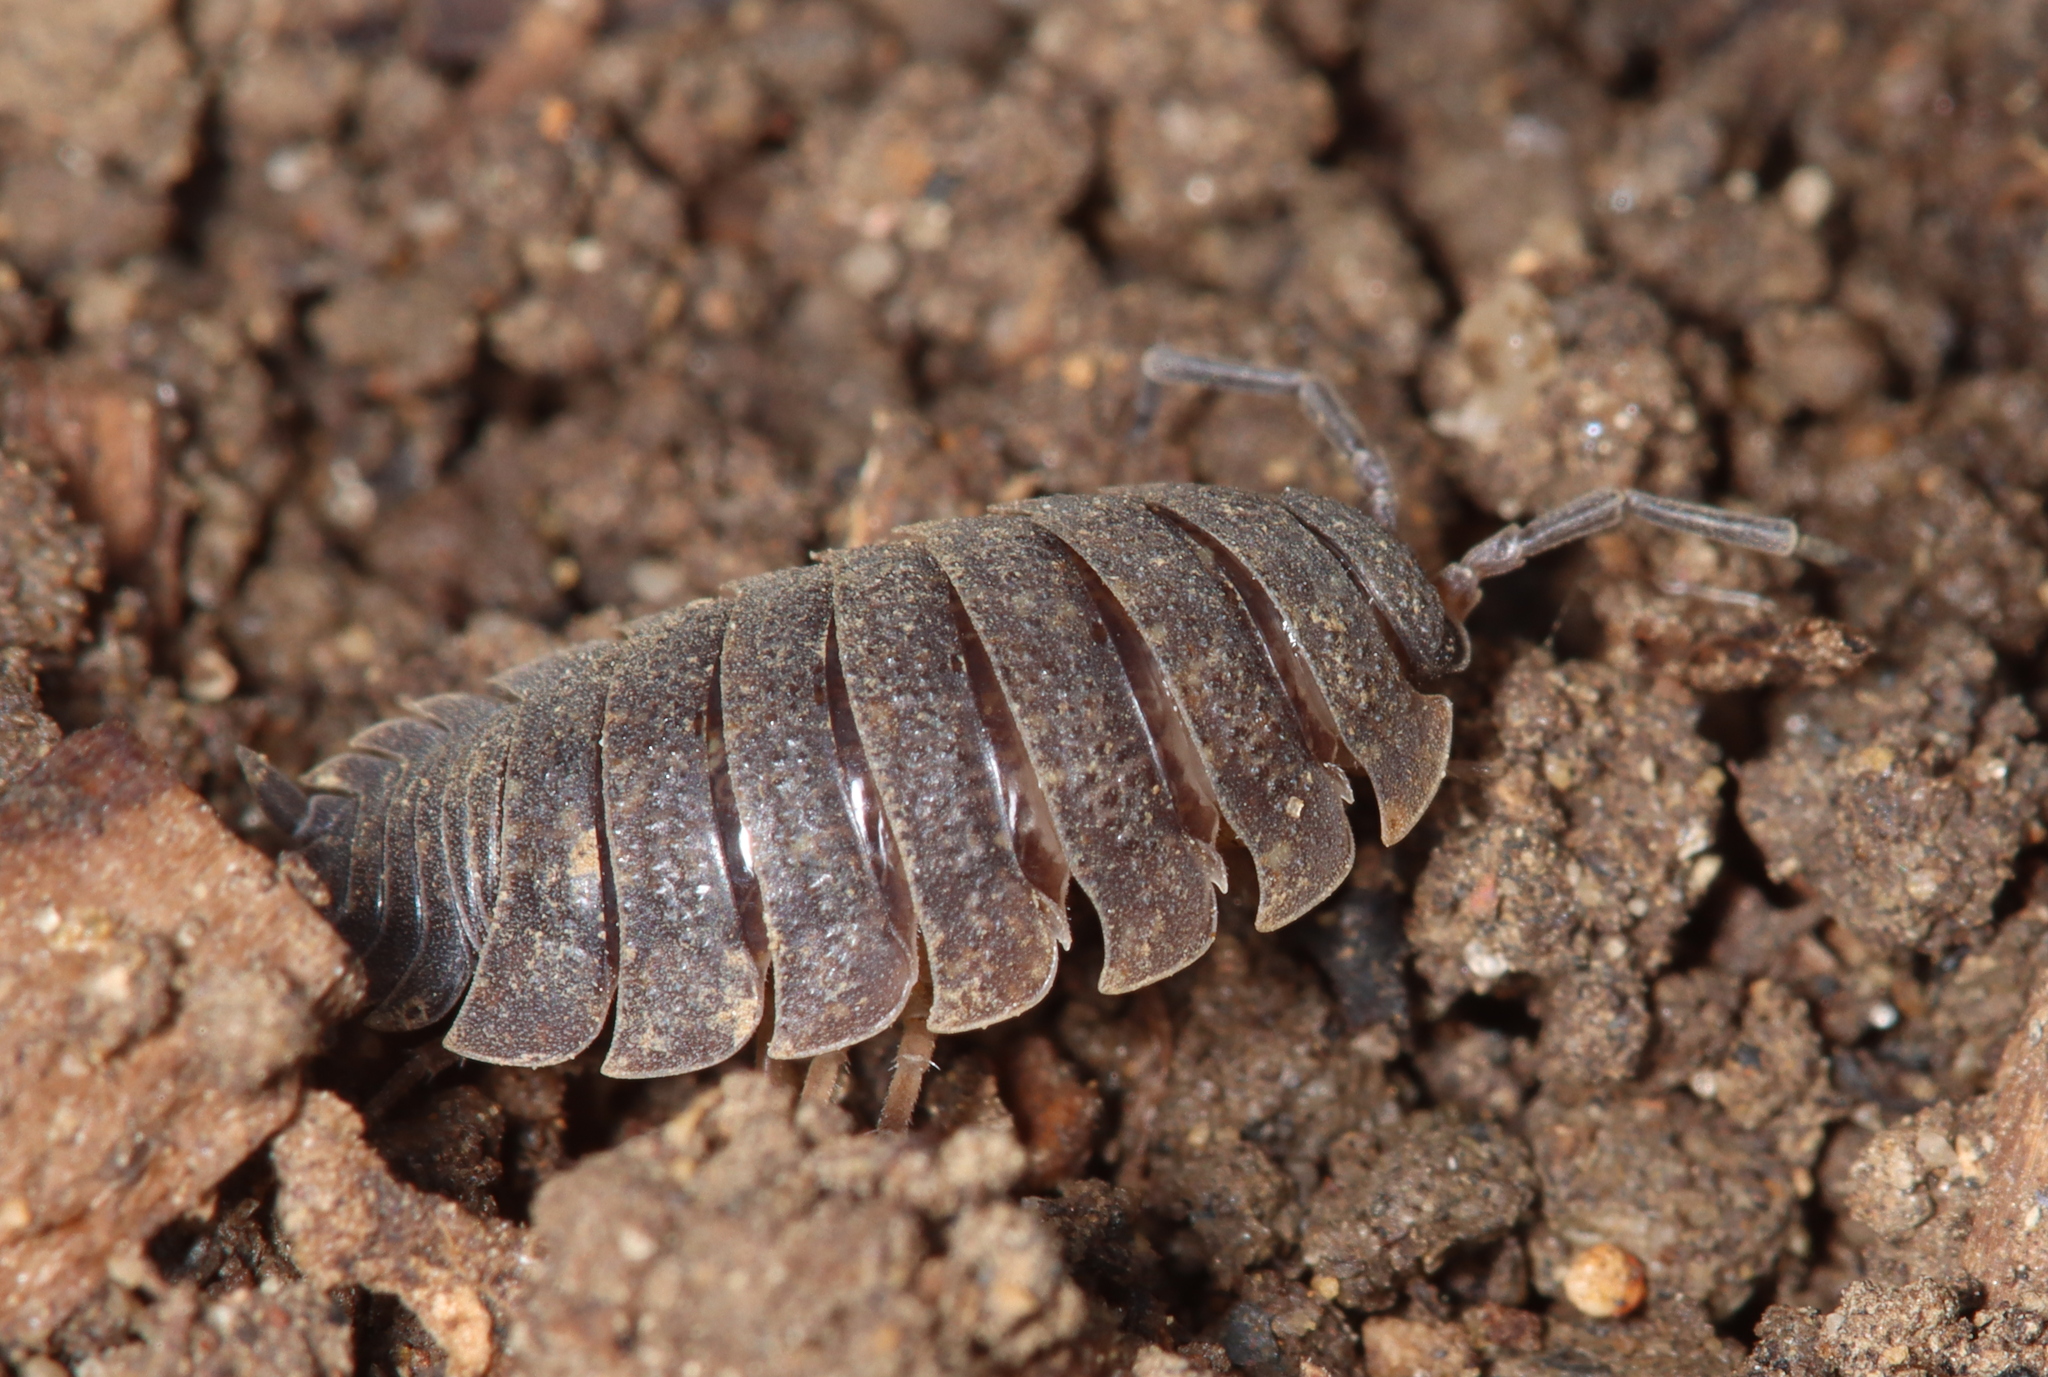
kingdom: Animalia
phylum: Arthropoda
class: Malacostraca
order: Isopoda
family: Porcellionidae
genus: Porcellio
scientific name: Porcellio scaber
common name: Common rough woodlouse
